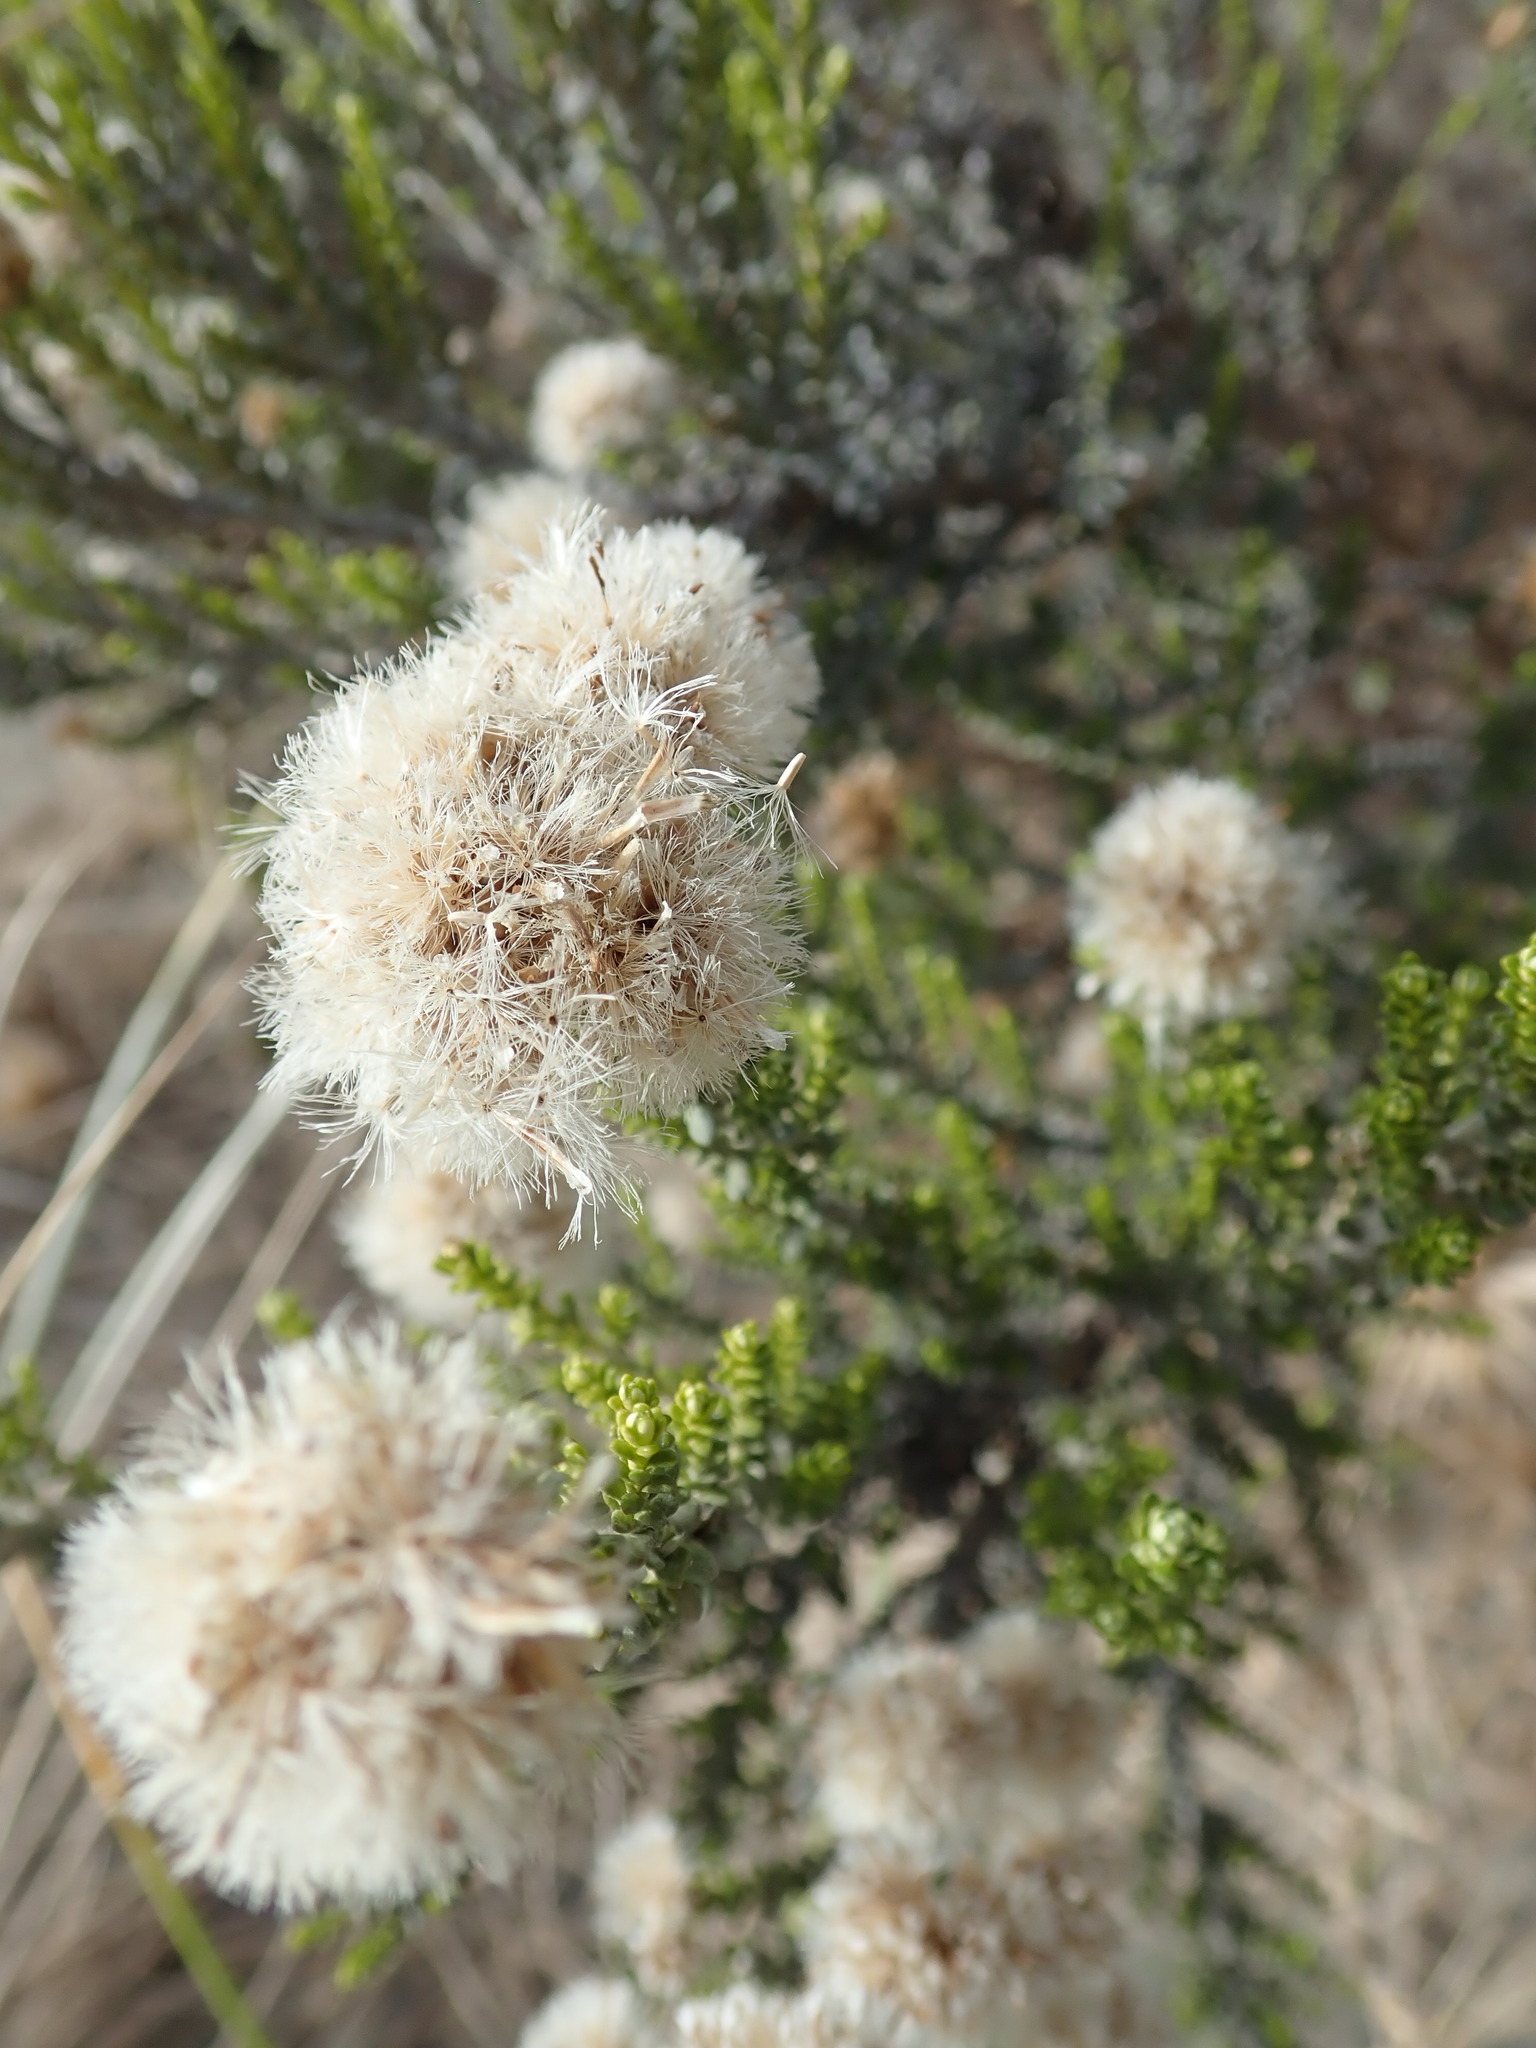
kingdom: Plantae
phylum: Tracheophyta
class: Magnoliopsida
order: Asterales
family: Asteraceae
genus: Ozothamnus
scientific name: Ozothamnus leptophyllus
